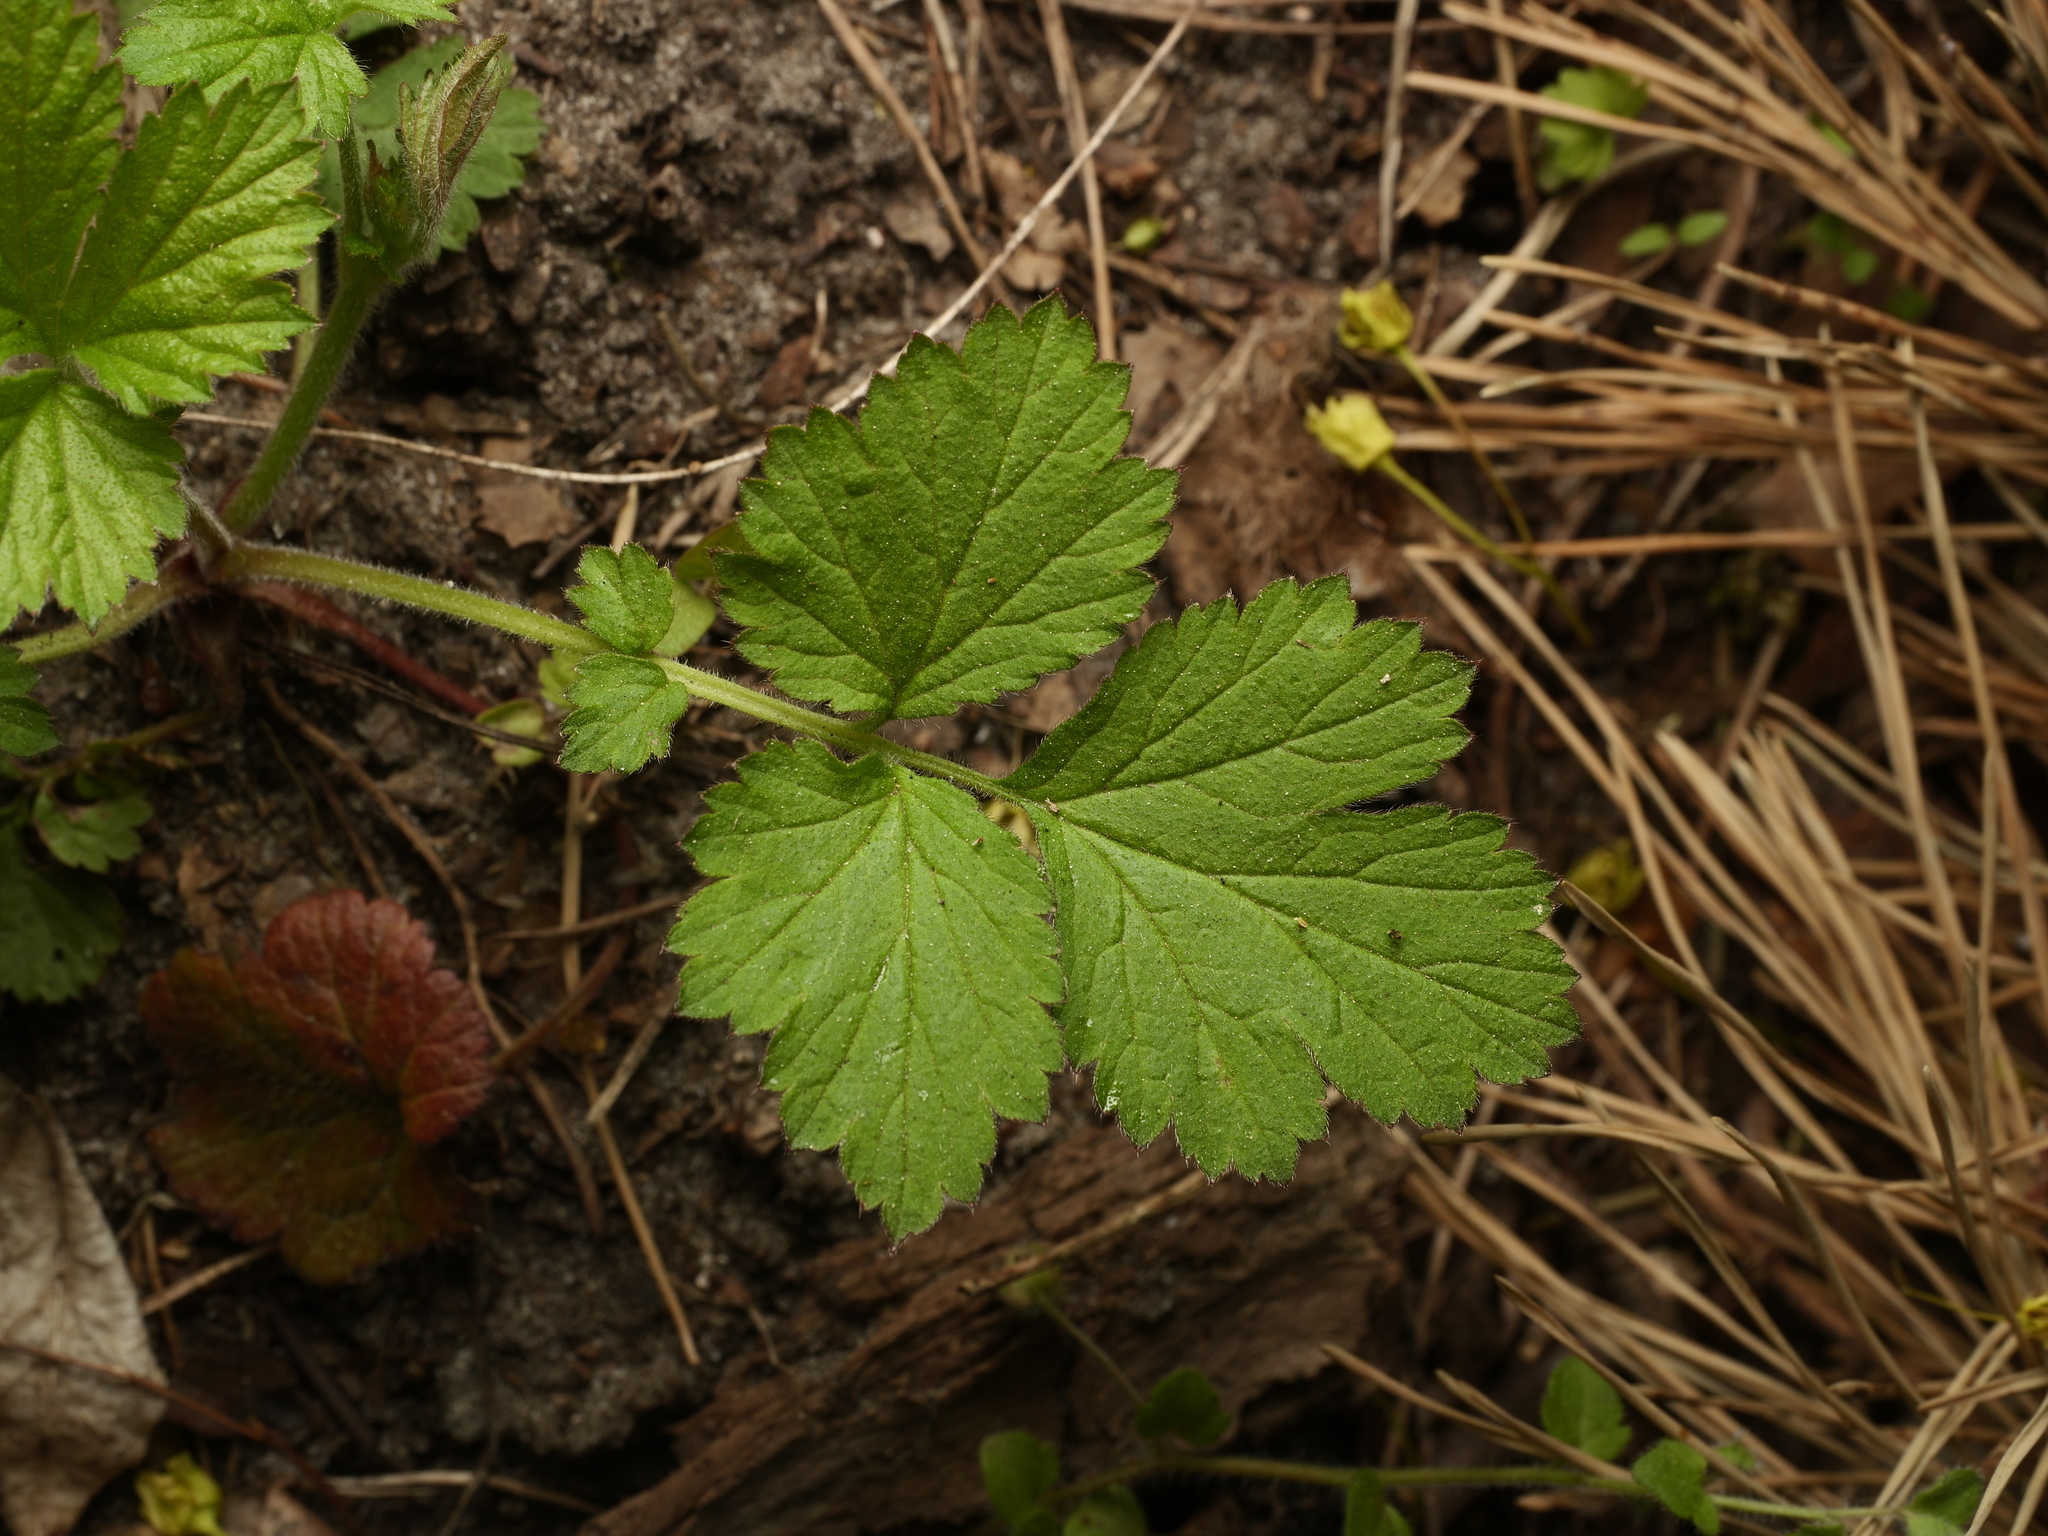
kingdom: Plantae
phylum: Tracheophyta
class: Magnoliopsida
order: Rosales
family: Rosaceae
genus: Geum
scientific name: Geum urbanum
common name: Wood avens
